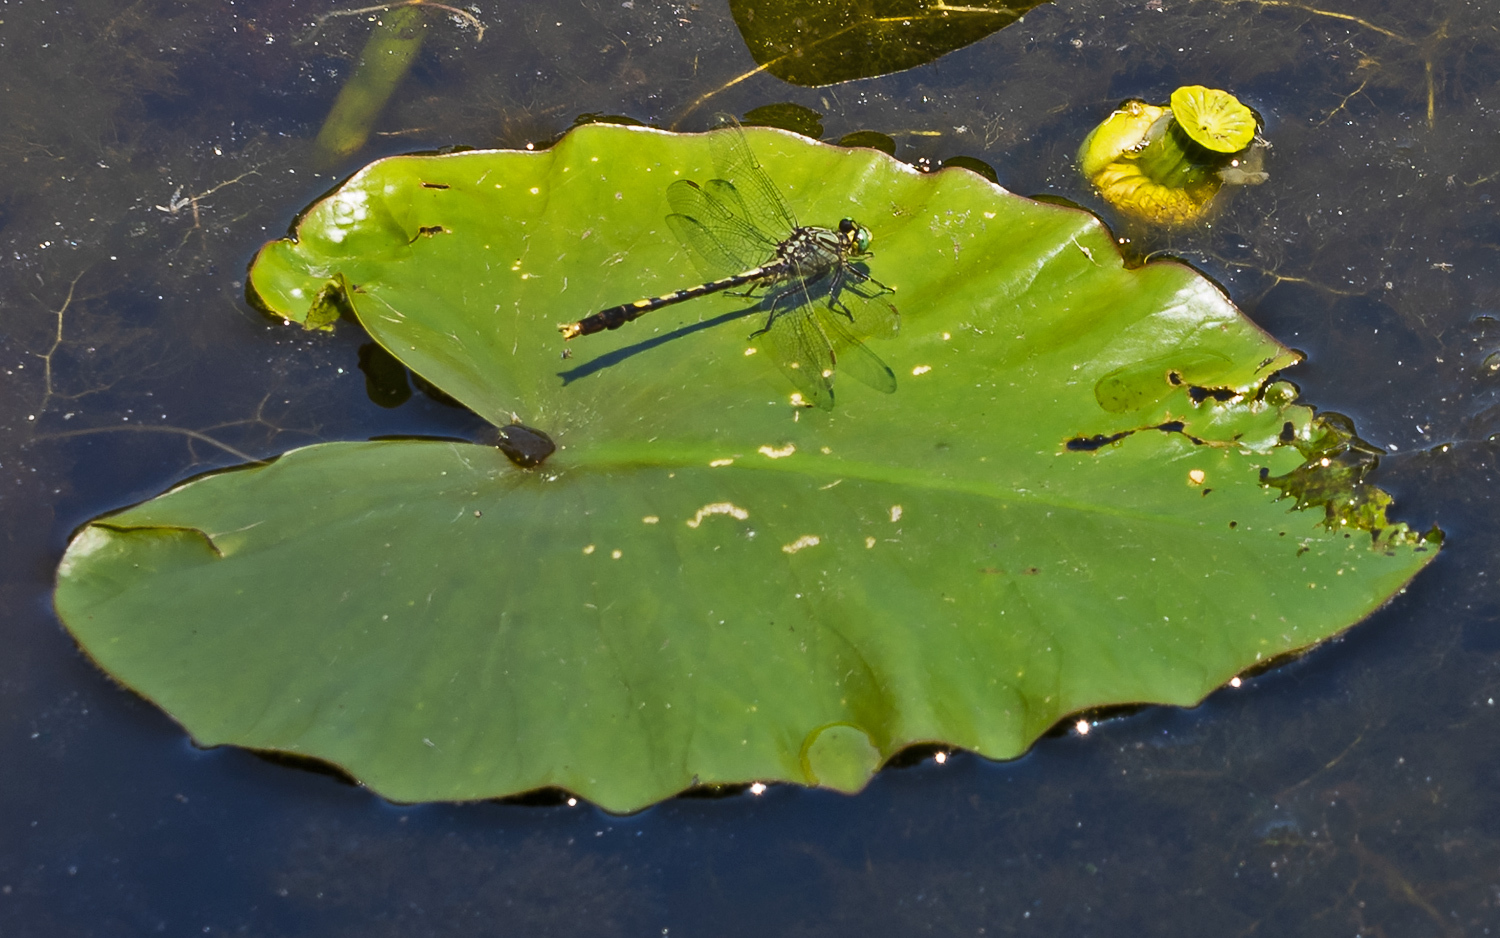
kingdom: Animalia
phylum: Arthropoda
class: Insecta
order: Odonata
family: Gomphidae
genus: Arigomphus
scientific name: Arigomphus villosipes
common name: Unicorn clubtail
